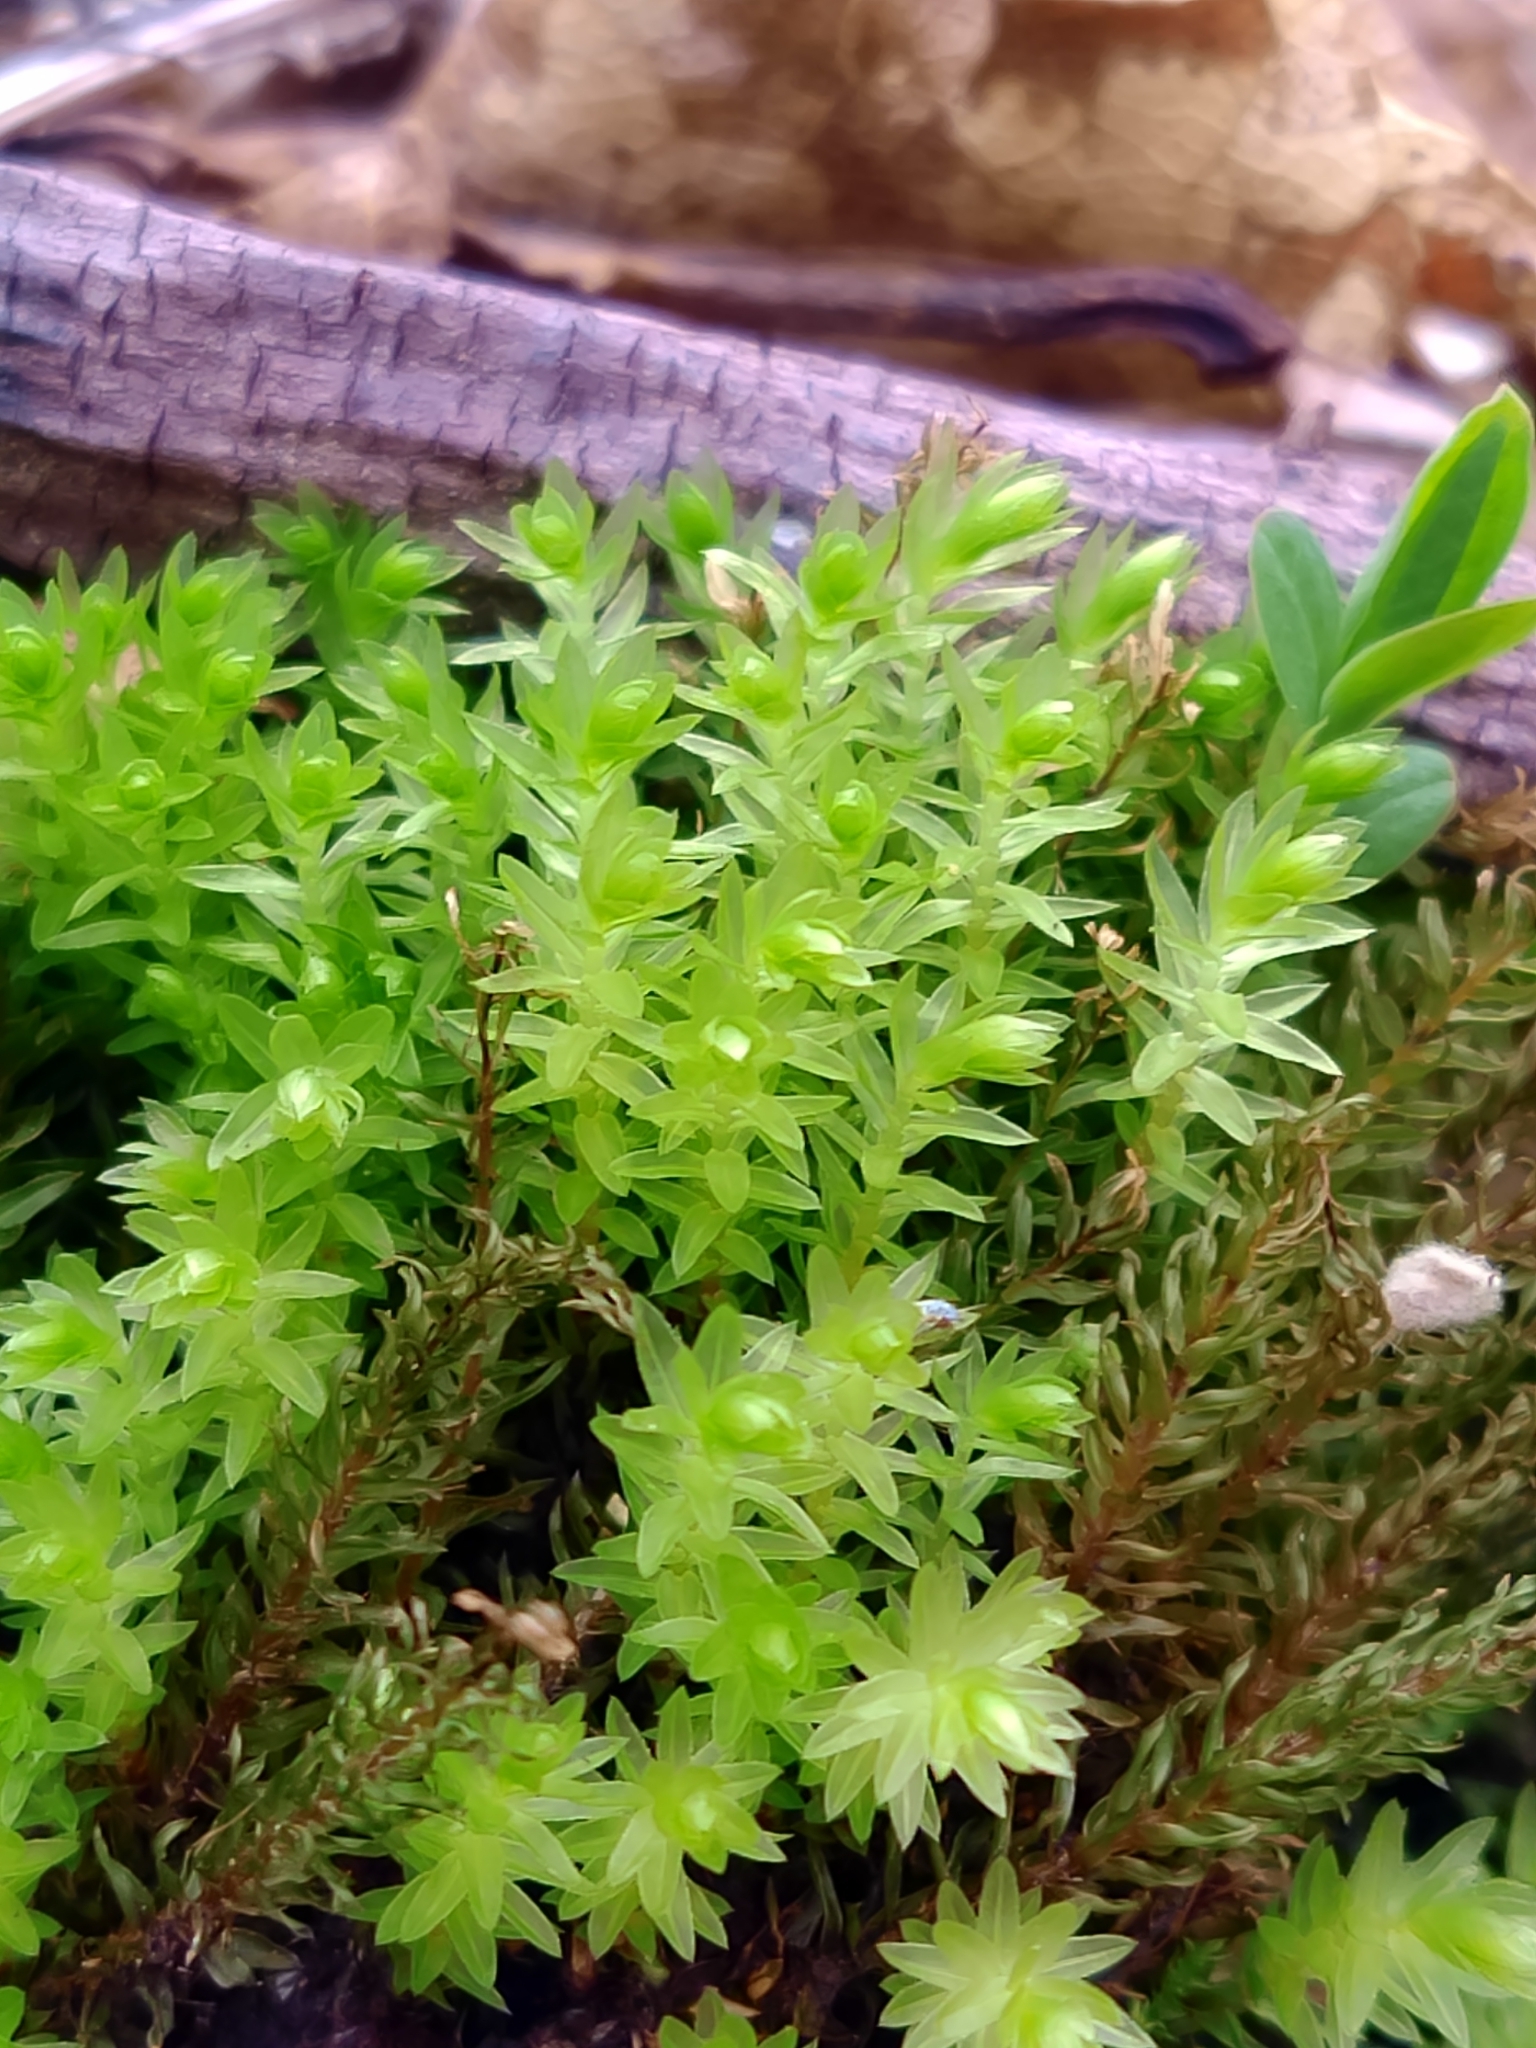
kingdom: Plantae
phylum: Bryophyta
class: Bryopsida
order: Bryales
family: Mniaceae
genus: Mnium
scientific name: Mnium hornum
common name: Swan's-neck leafy moss
